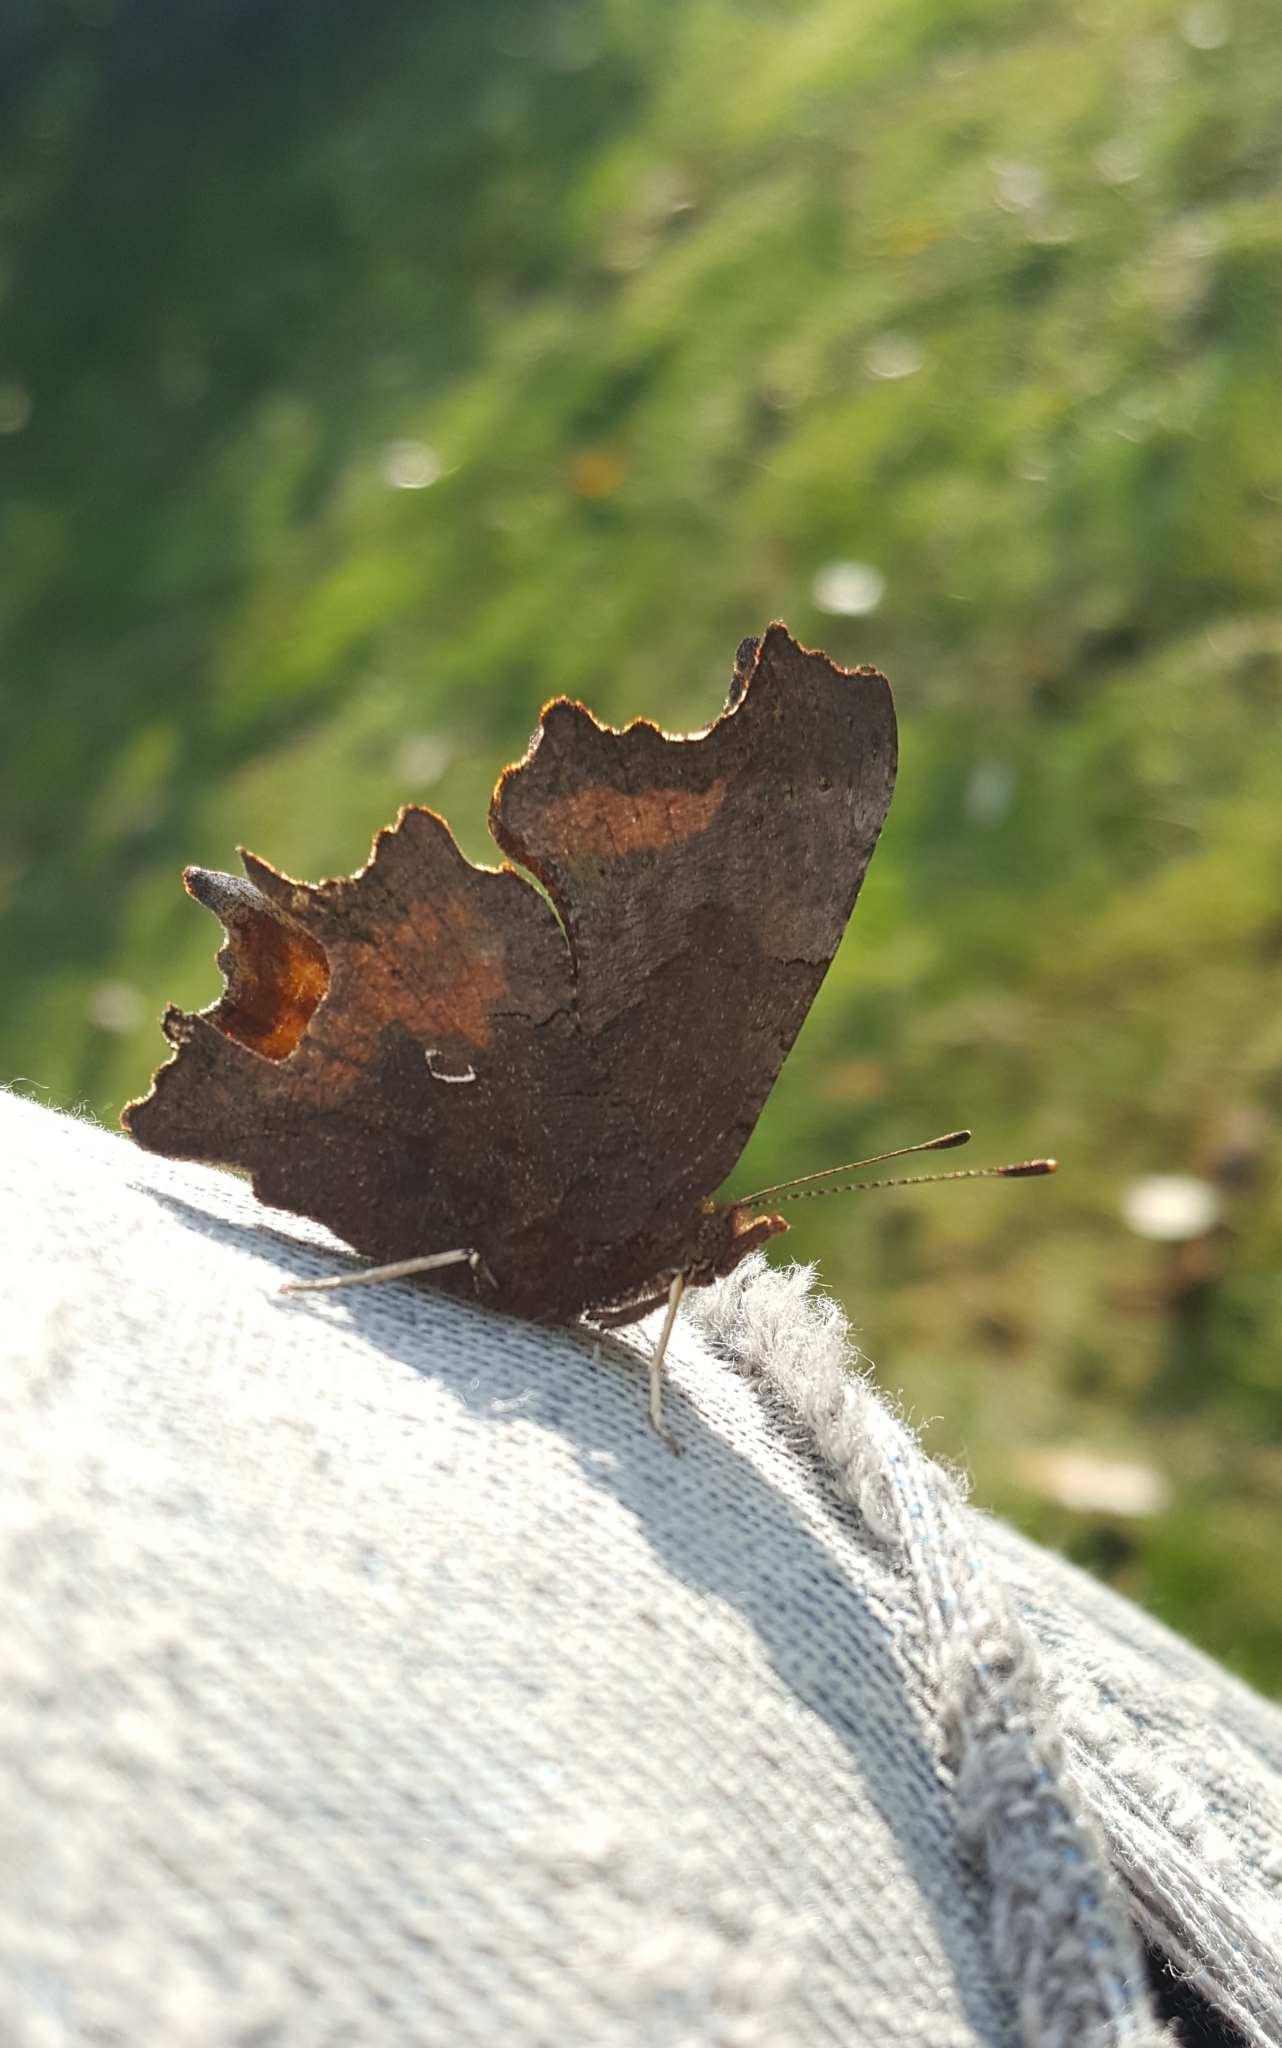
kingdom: Animalia
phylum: Arthropoda
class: Insecta
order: Lepidoptera
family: Nymphalidae
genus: Polygonia
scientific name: Polygonia c-album
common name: Comma
